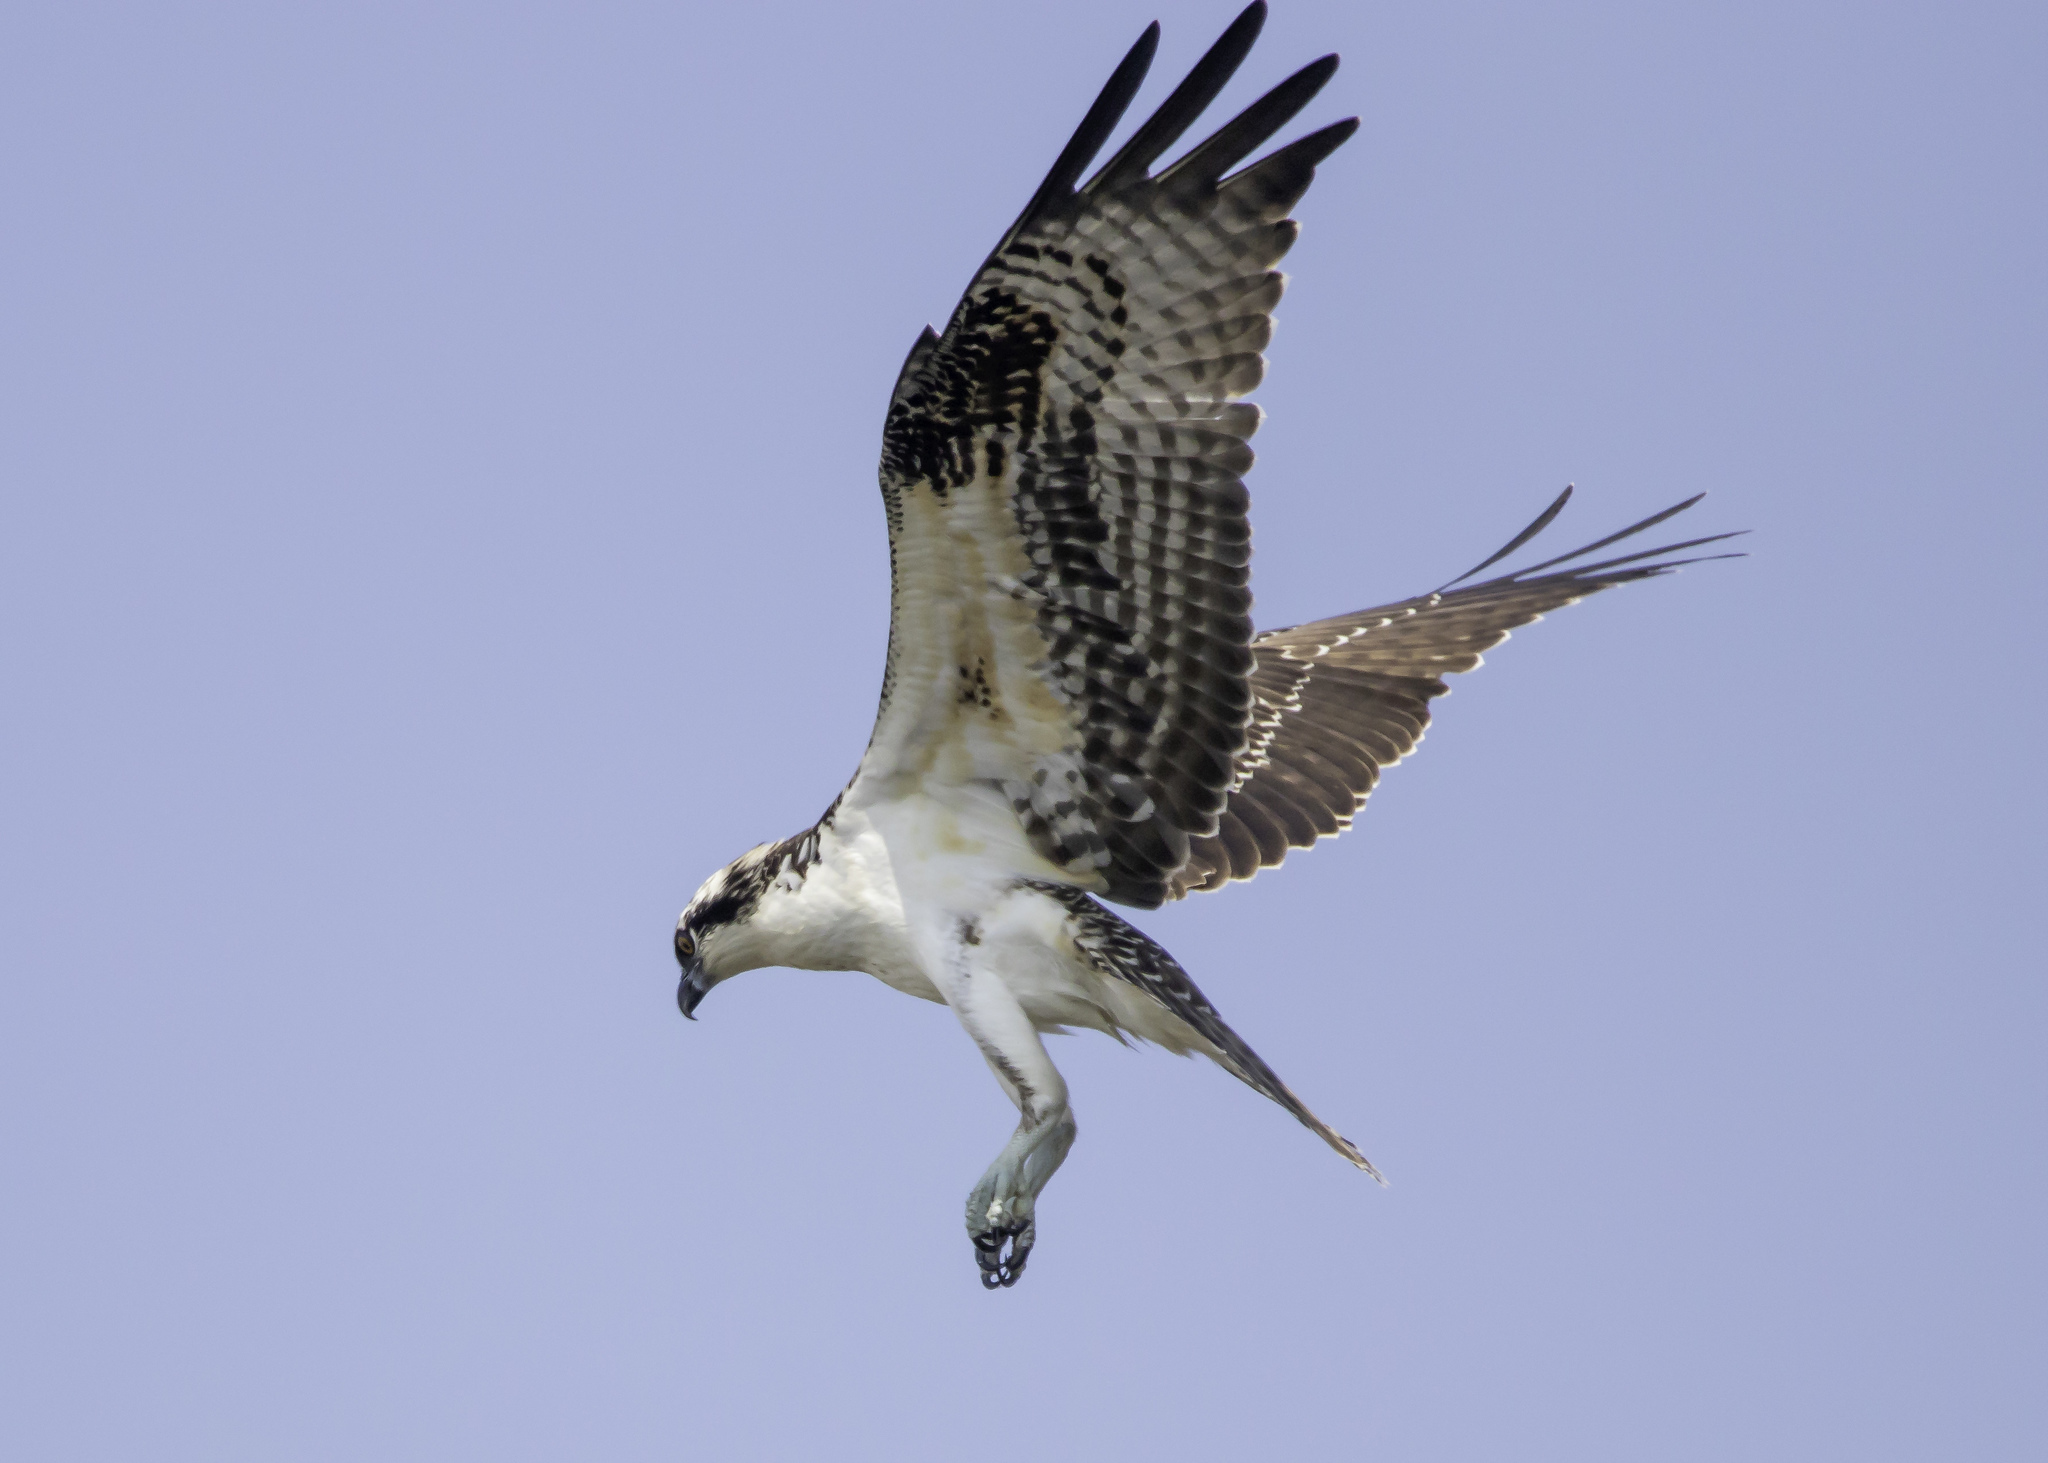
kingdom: Animalia
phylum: Chordata
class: Aves
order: Accipitriformes
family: Pandionidae
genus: Pandion
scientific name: Pandion haliaetus
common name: Osprey
